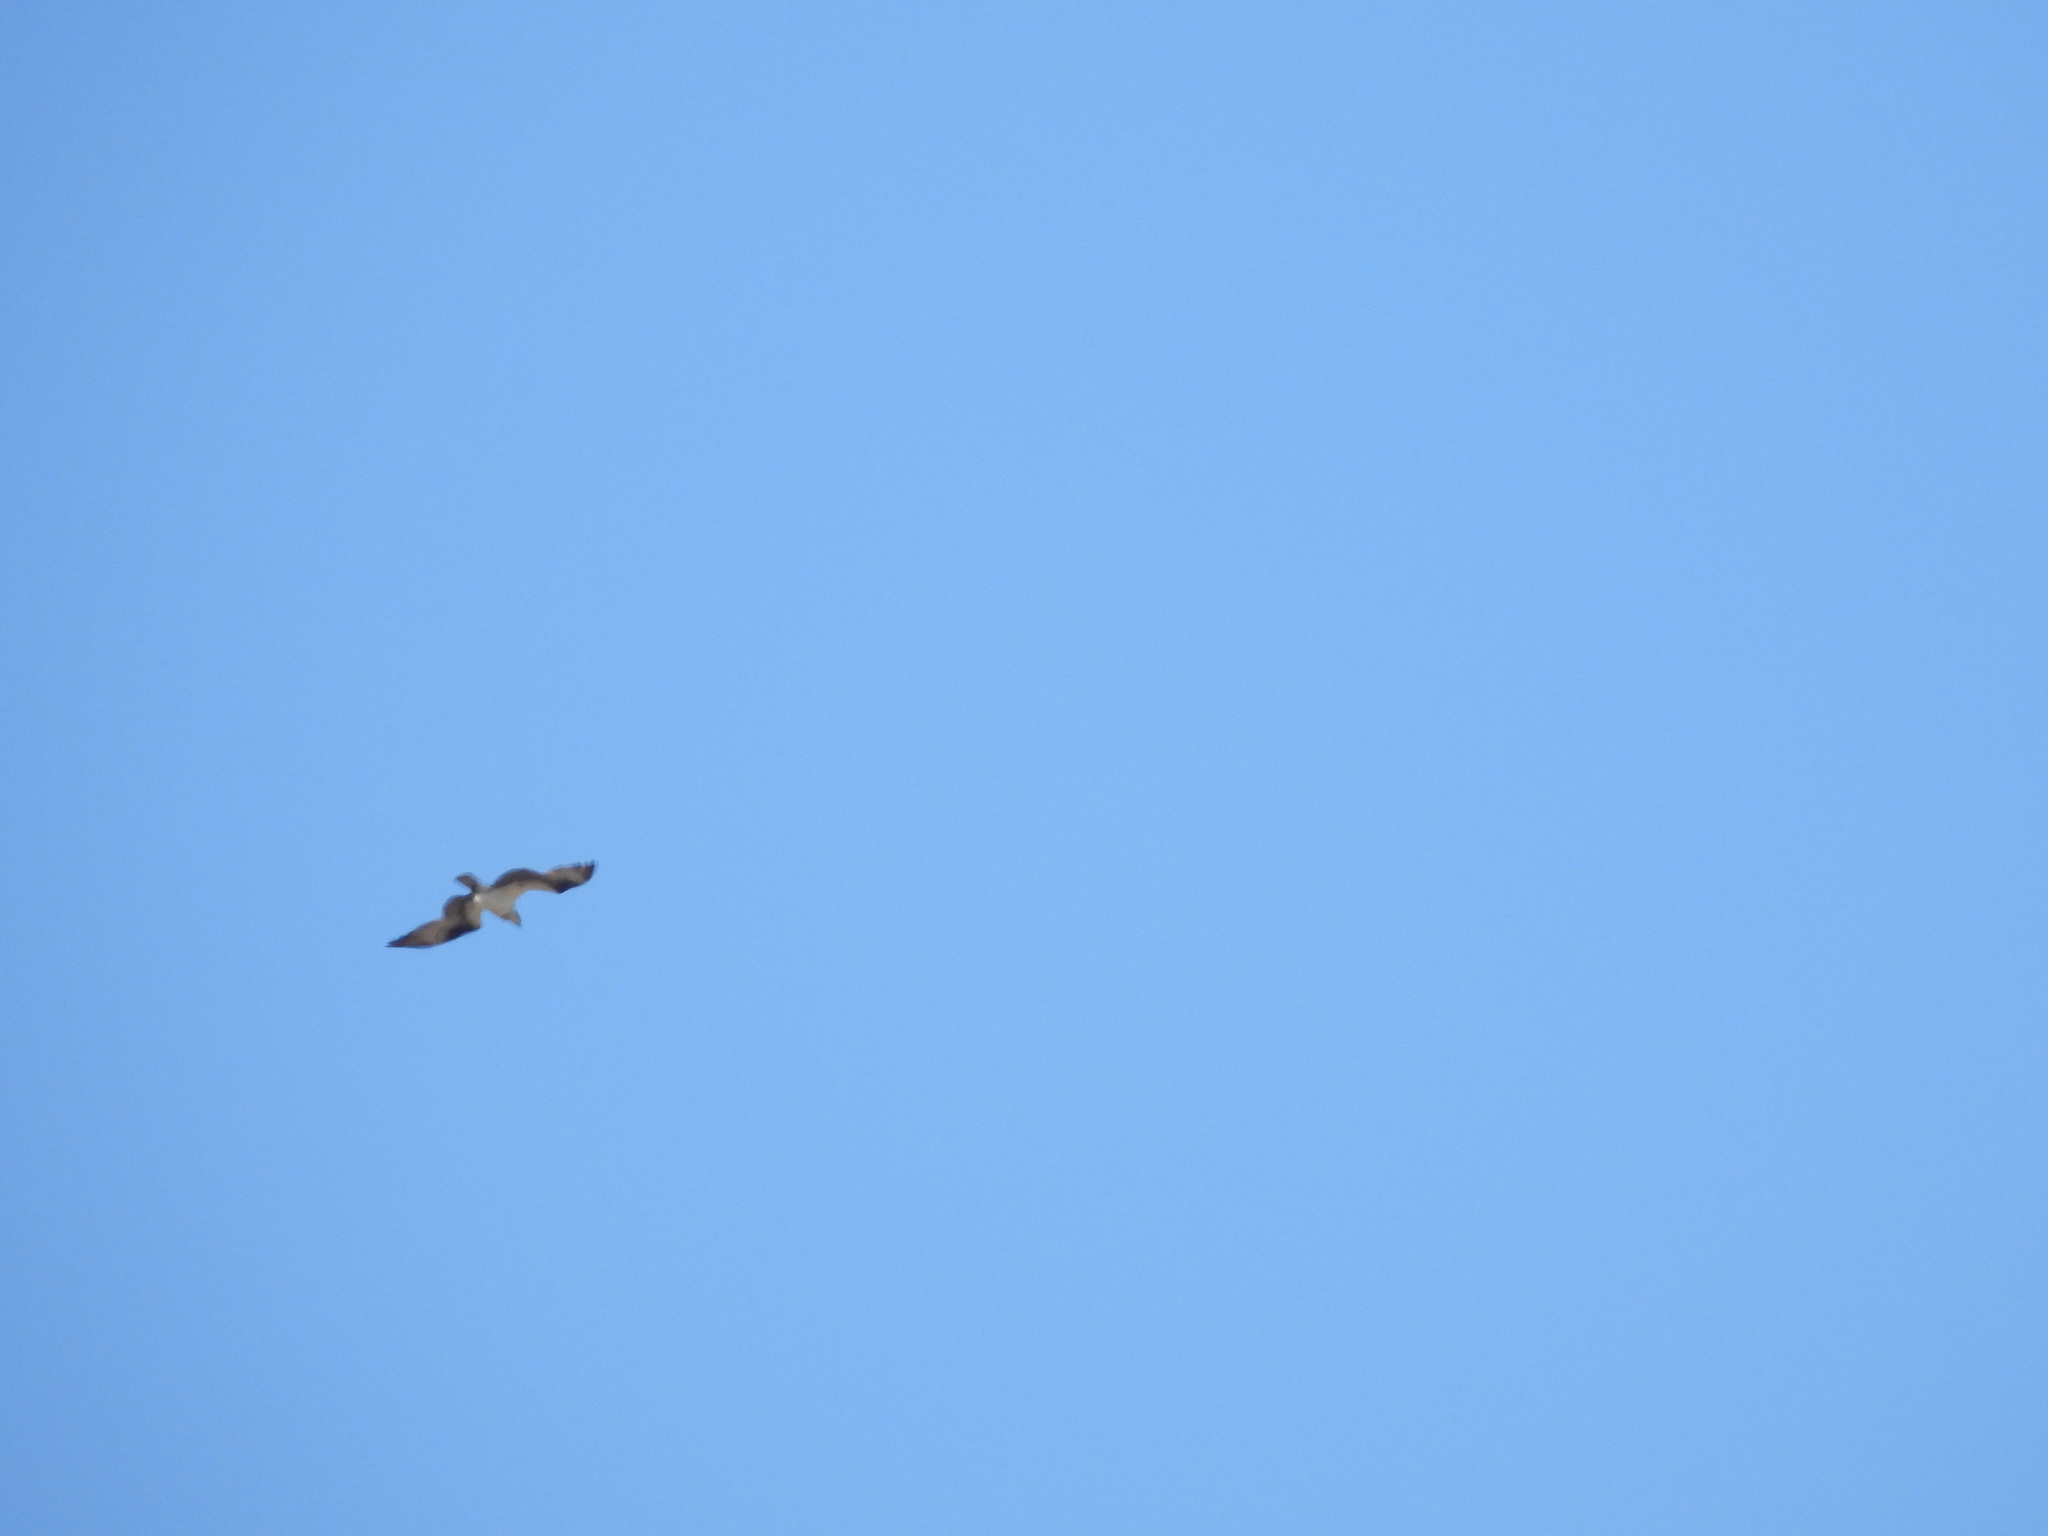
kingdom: Animalia
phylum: Chordata
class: Aves
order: Accipitriformes
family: Pandionidae
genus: Pandion
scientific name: Pandion haliaetus
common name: Osprey
